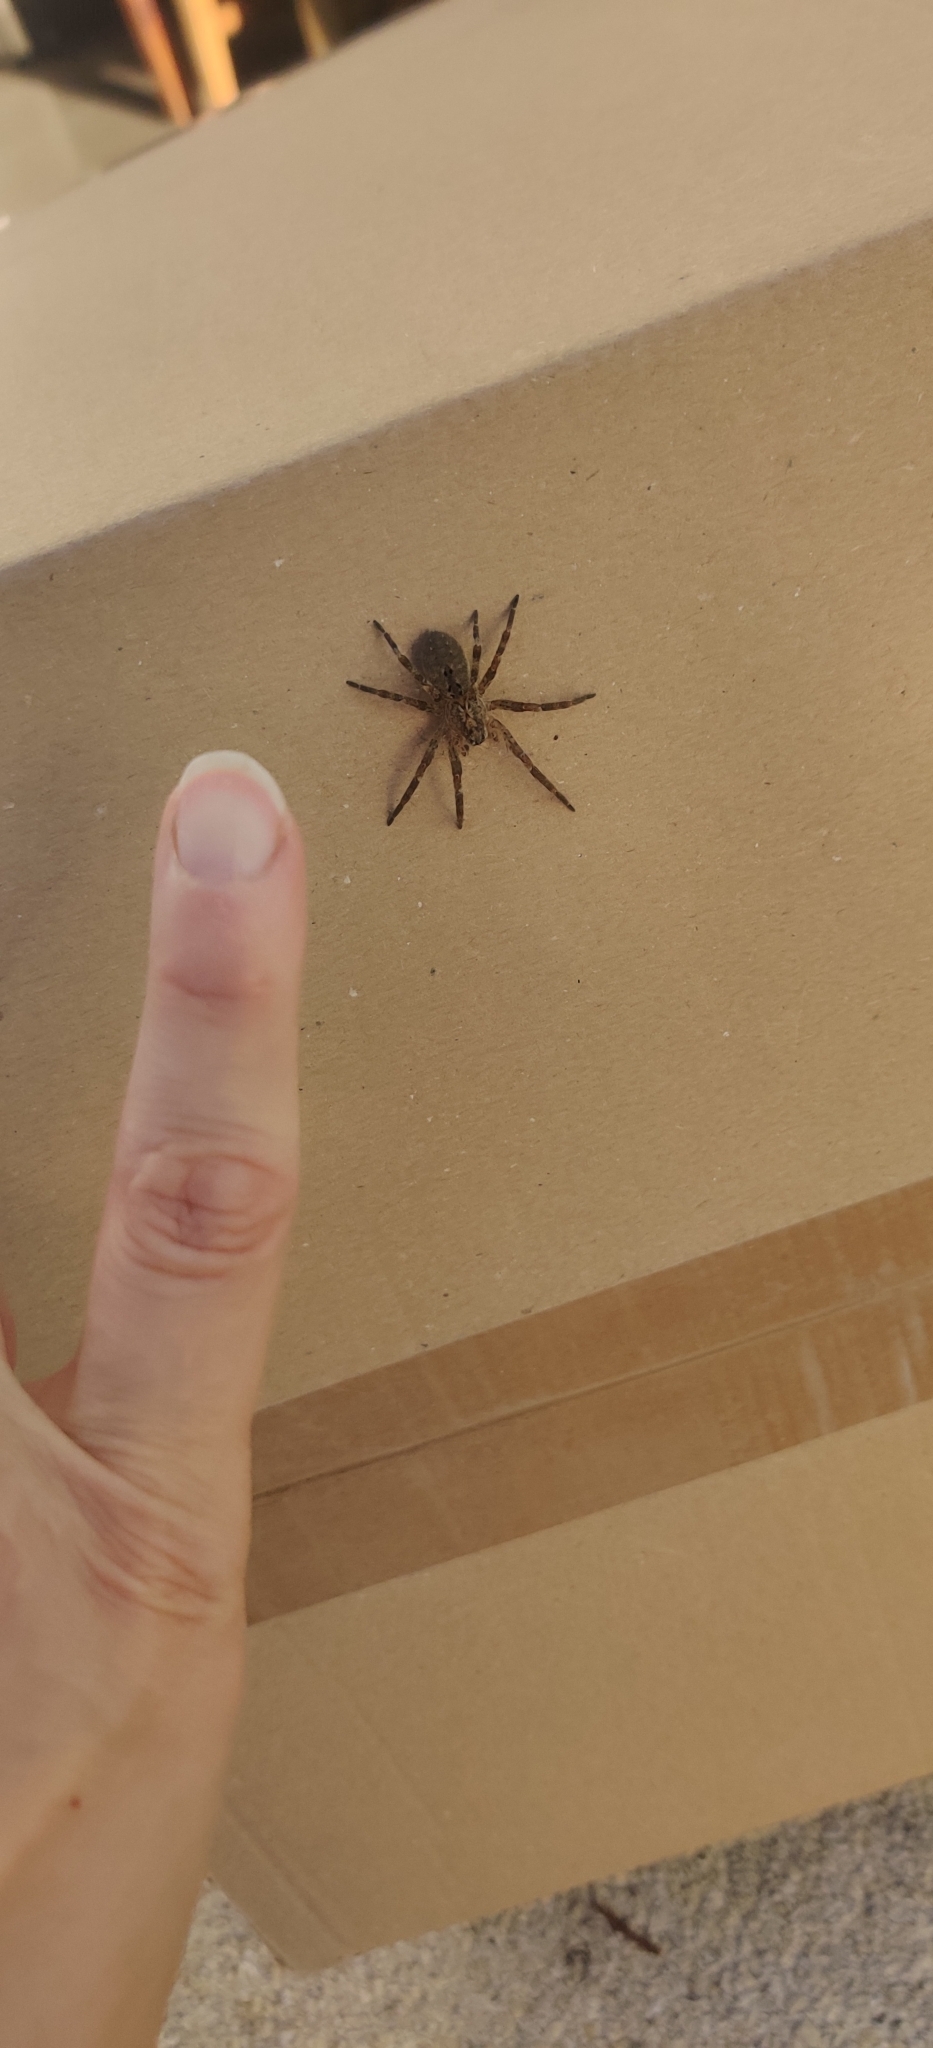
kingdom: Animalia
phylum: Arthropoda
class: Arachnida
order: Araneae
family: Zoropsidae
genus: Zoropsis
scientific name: Zoropsis spinimana
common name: Zoropsid spider
